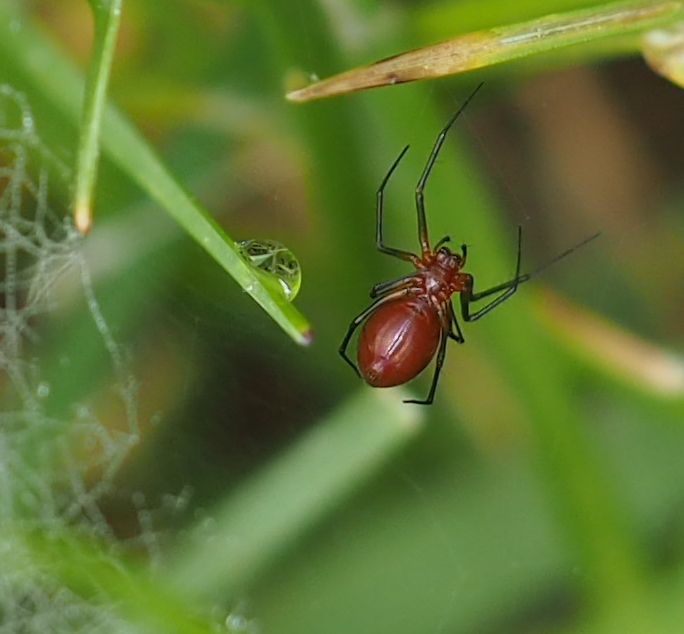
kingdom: Animalia
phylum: Arthropoda
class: Arachnida
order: Araneae
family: Linyphiidae
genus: Florinda
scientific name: Florinda coccinea
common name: Black-tailed red sheetweaver
